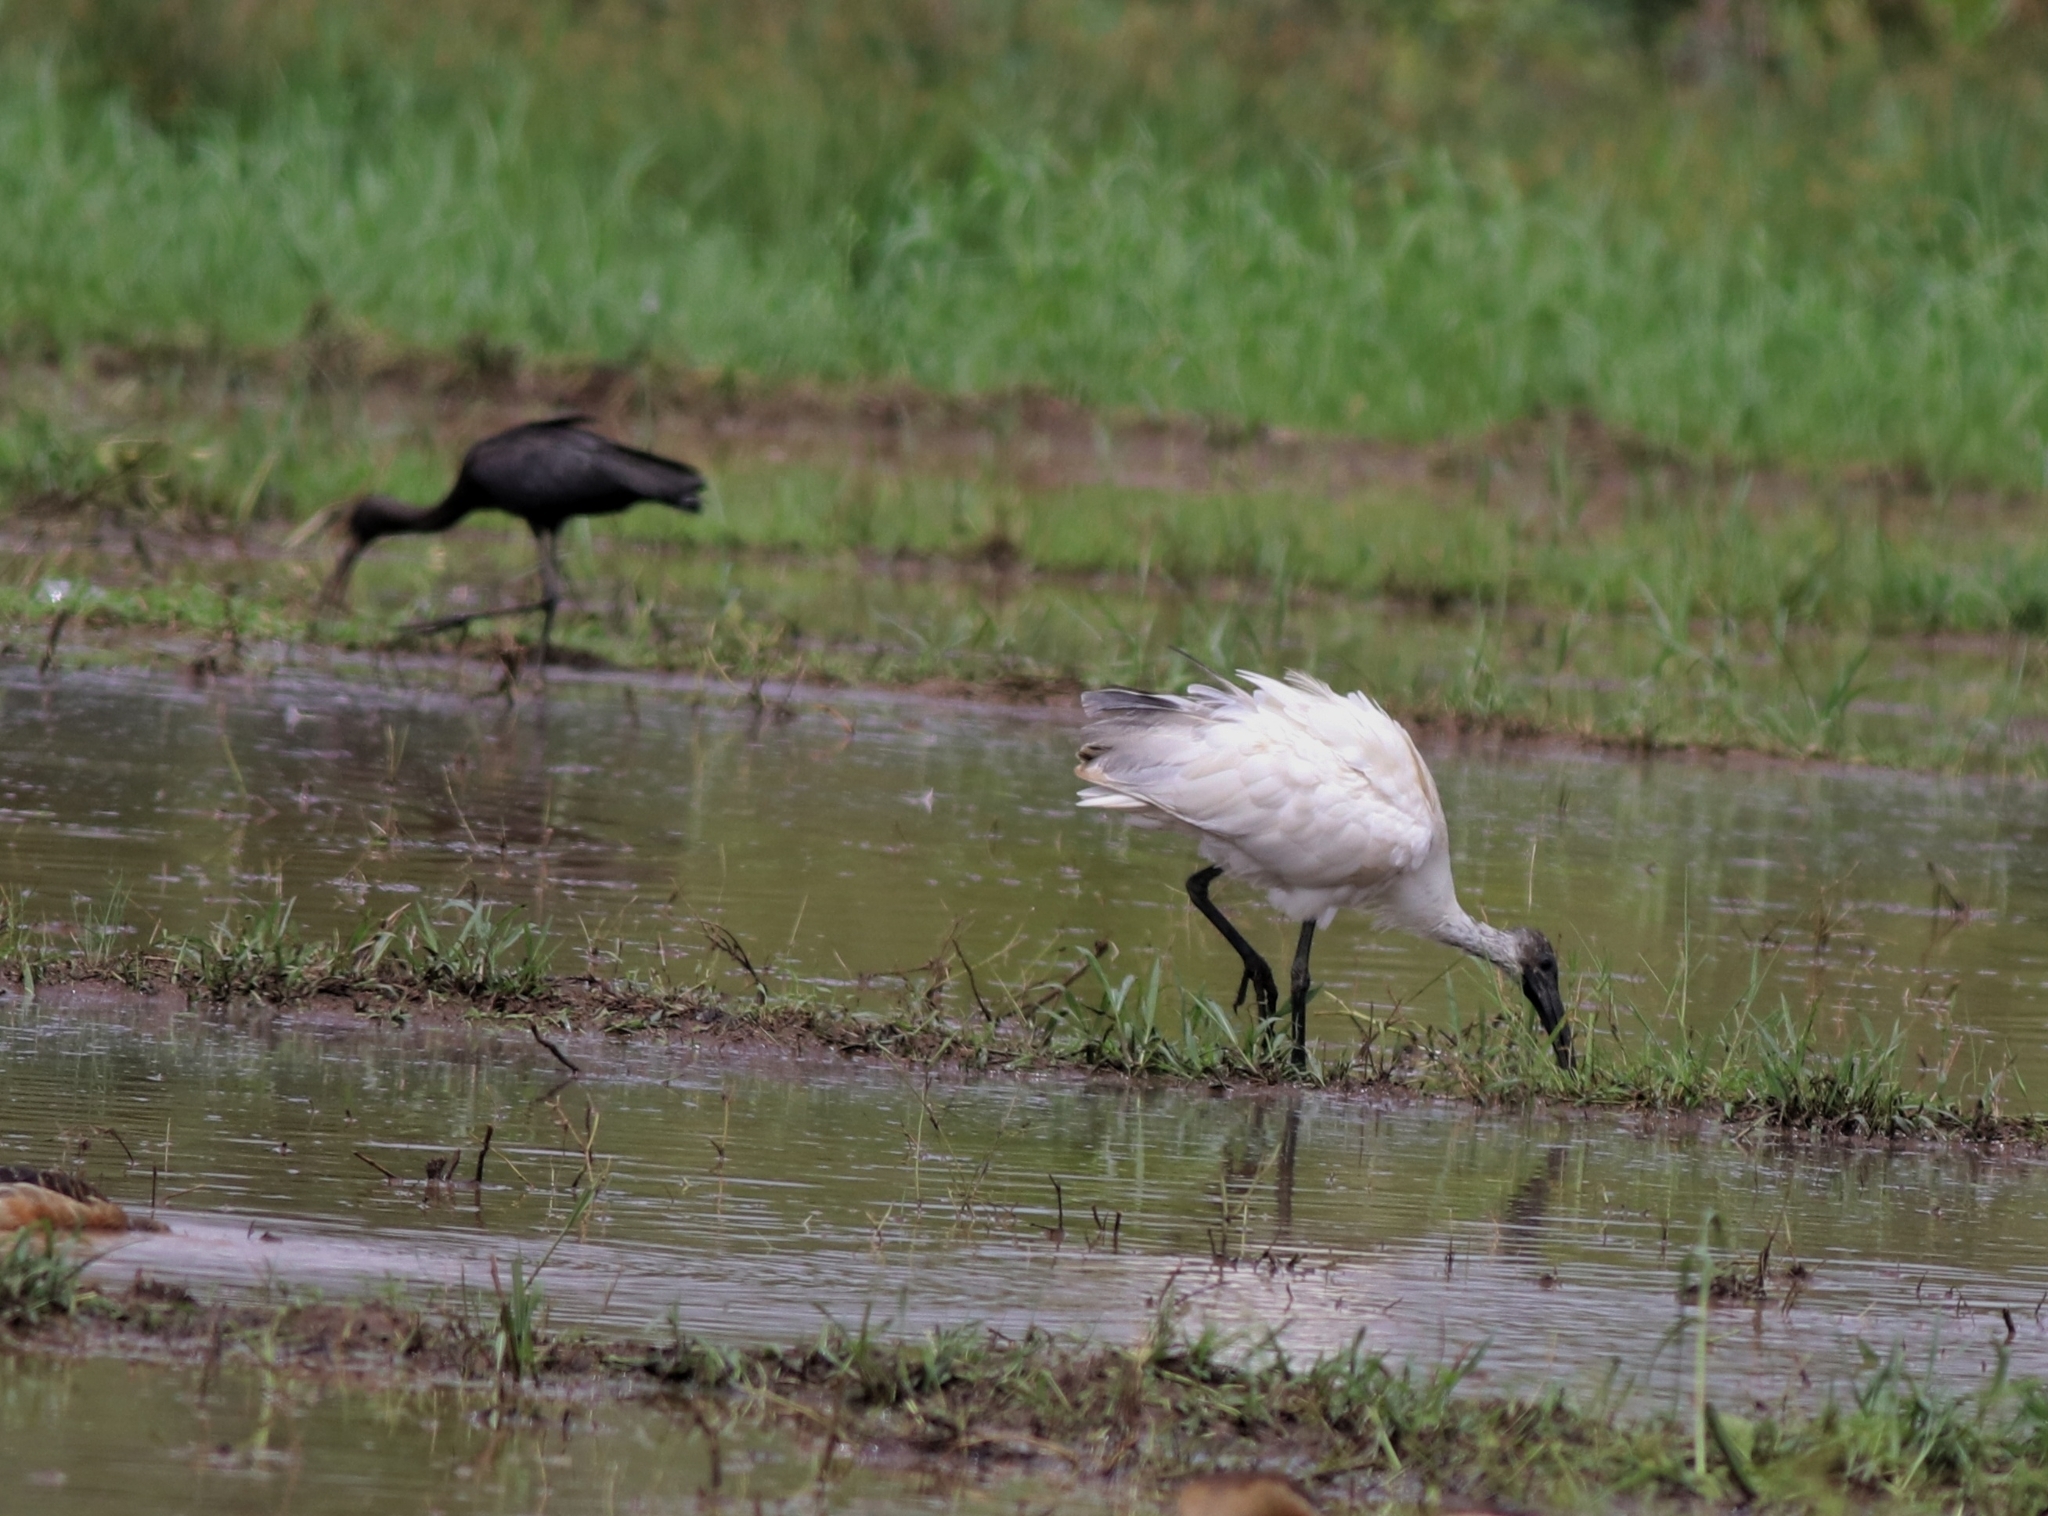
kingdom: Animalia
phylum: Chordata
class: Aves
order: Pelecaniformes
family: Threskiornithidae
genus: Threskiornis
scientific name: Threskiornis melanocephalus
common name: Black-headed ibis
